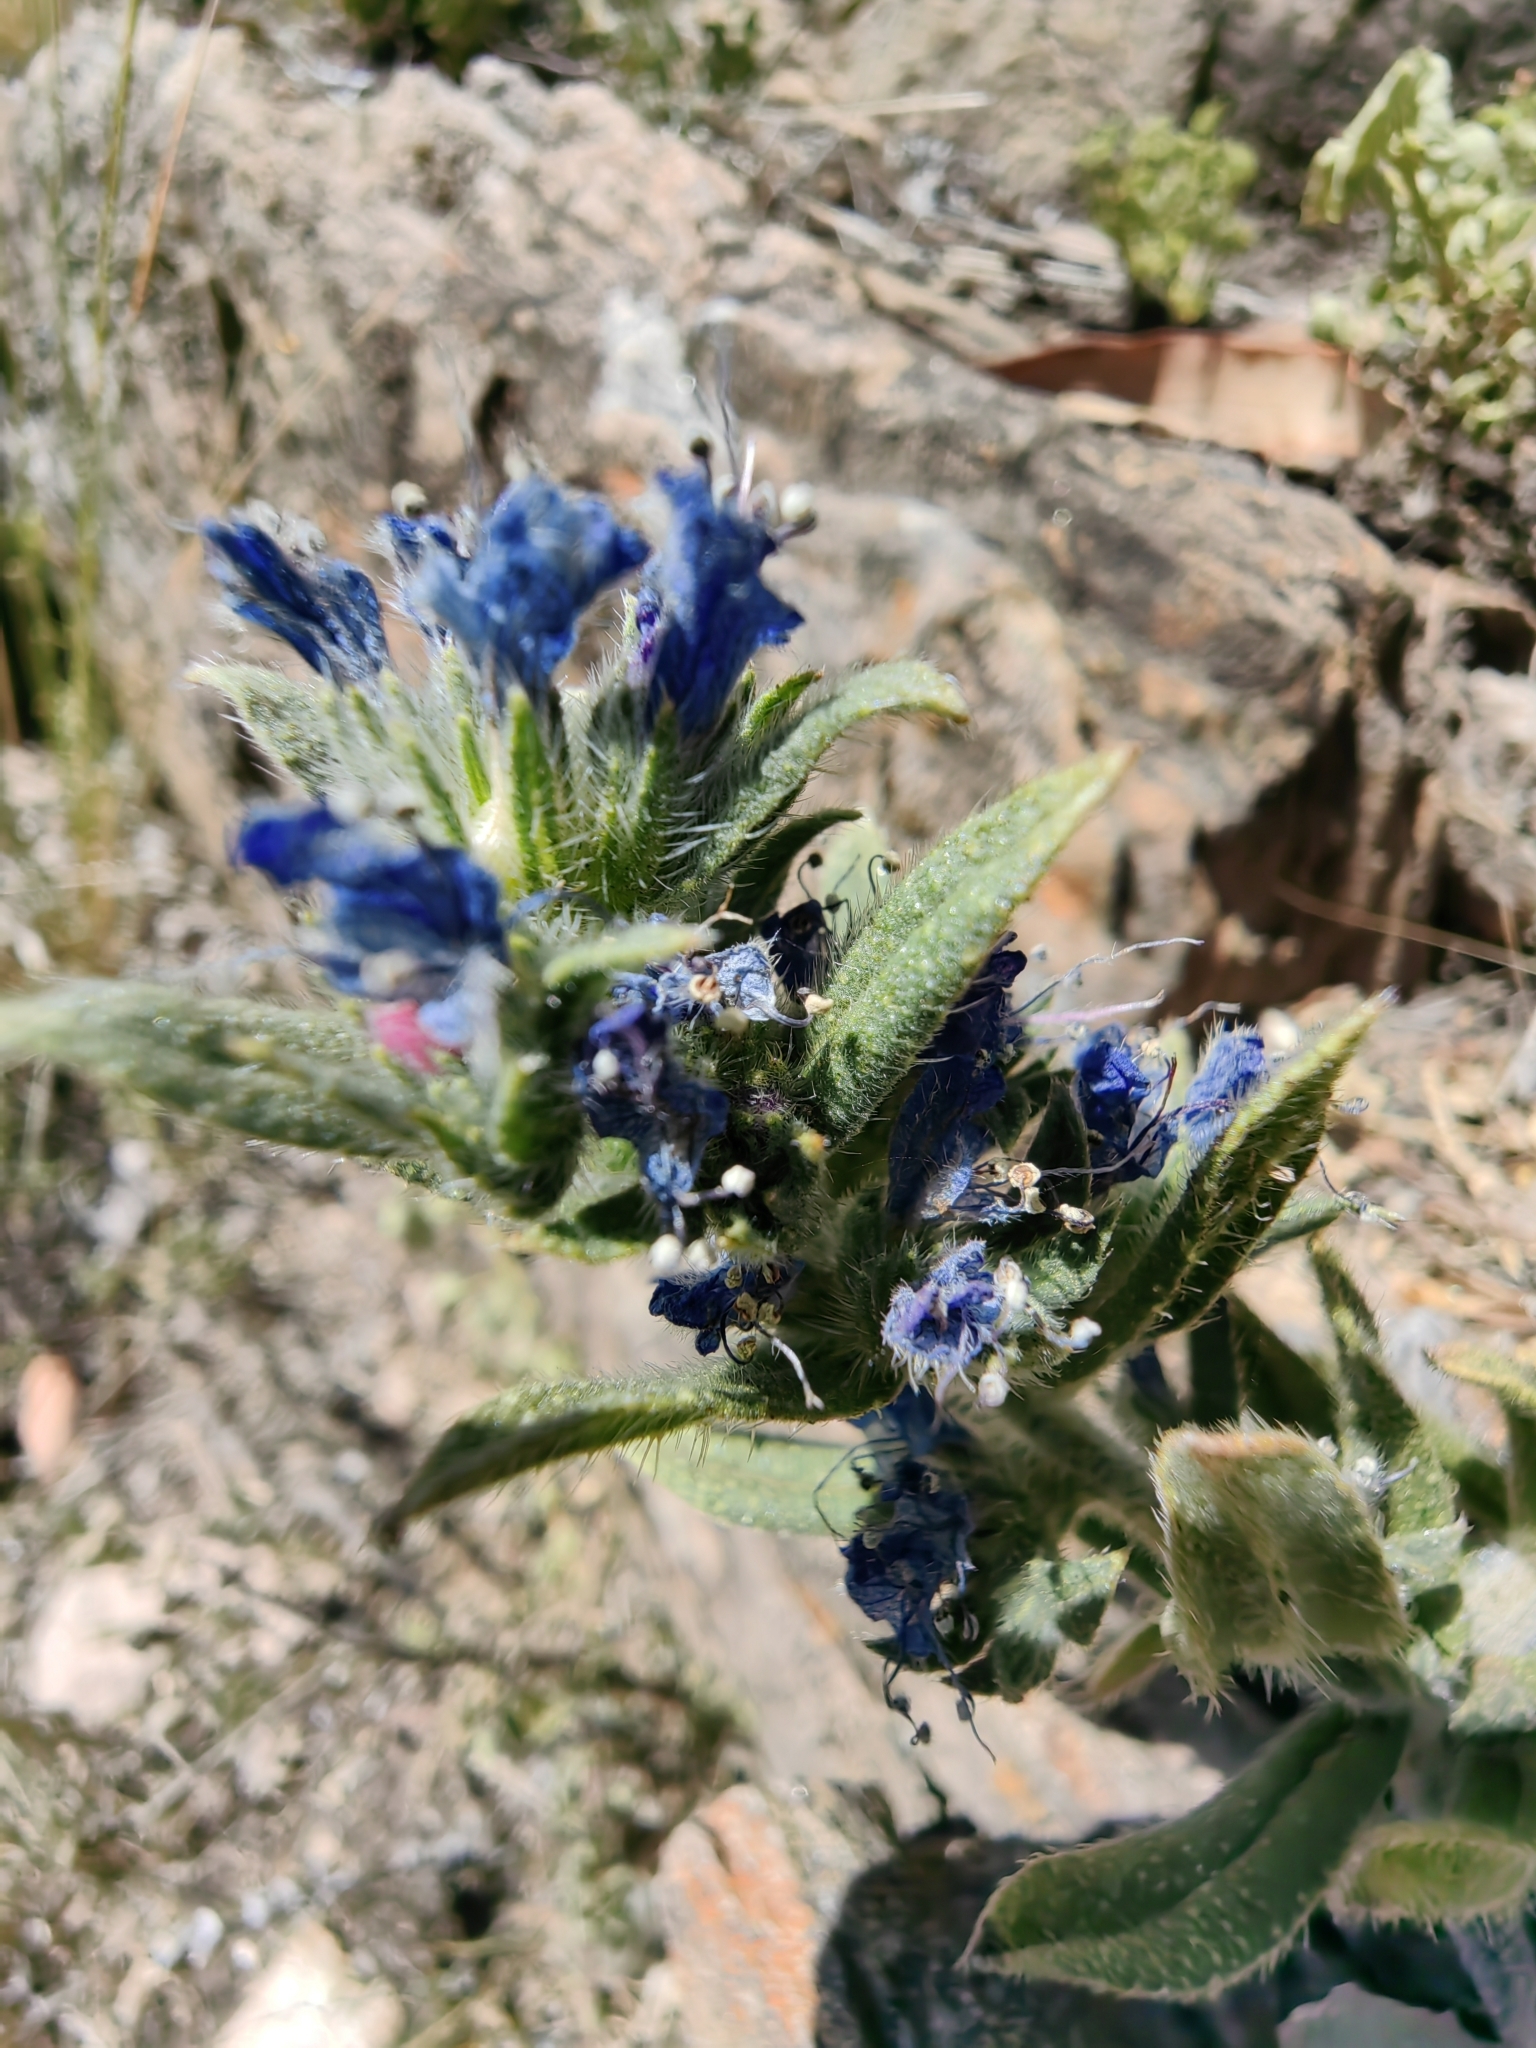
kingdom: Plantae
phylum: Tracheophyta
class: Magnoliopsida
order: Boraginales
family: Boraginaceae
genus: Echium
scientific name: Echium vulgare
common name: Common viper's bugloss
